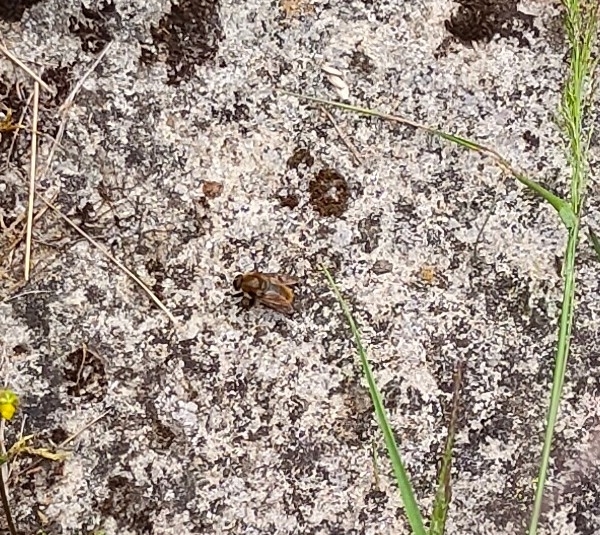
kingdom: Animalia
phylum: Arthropoda
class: Insecta
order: Diptera
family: Syrphidae
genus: Merodon
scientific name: Merodon equestris
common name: Greater bulb-fly
